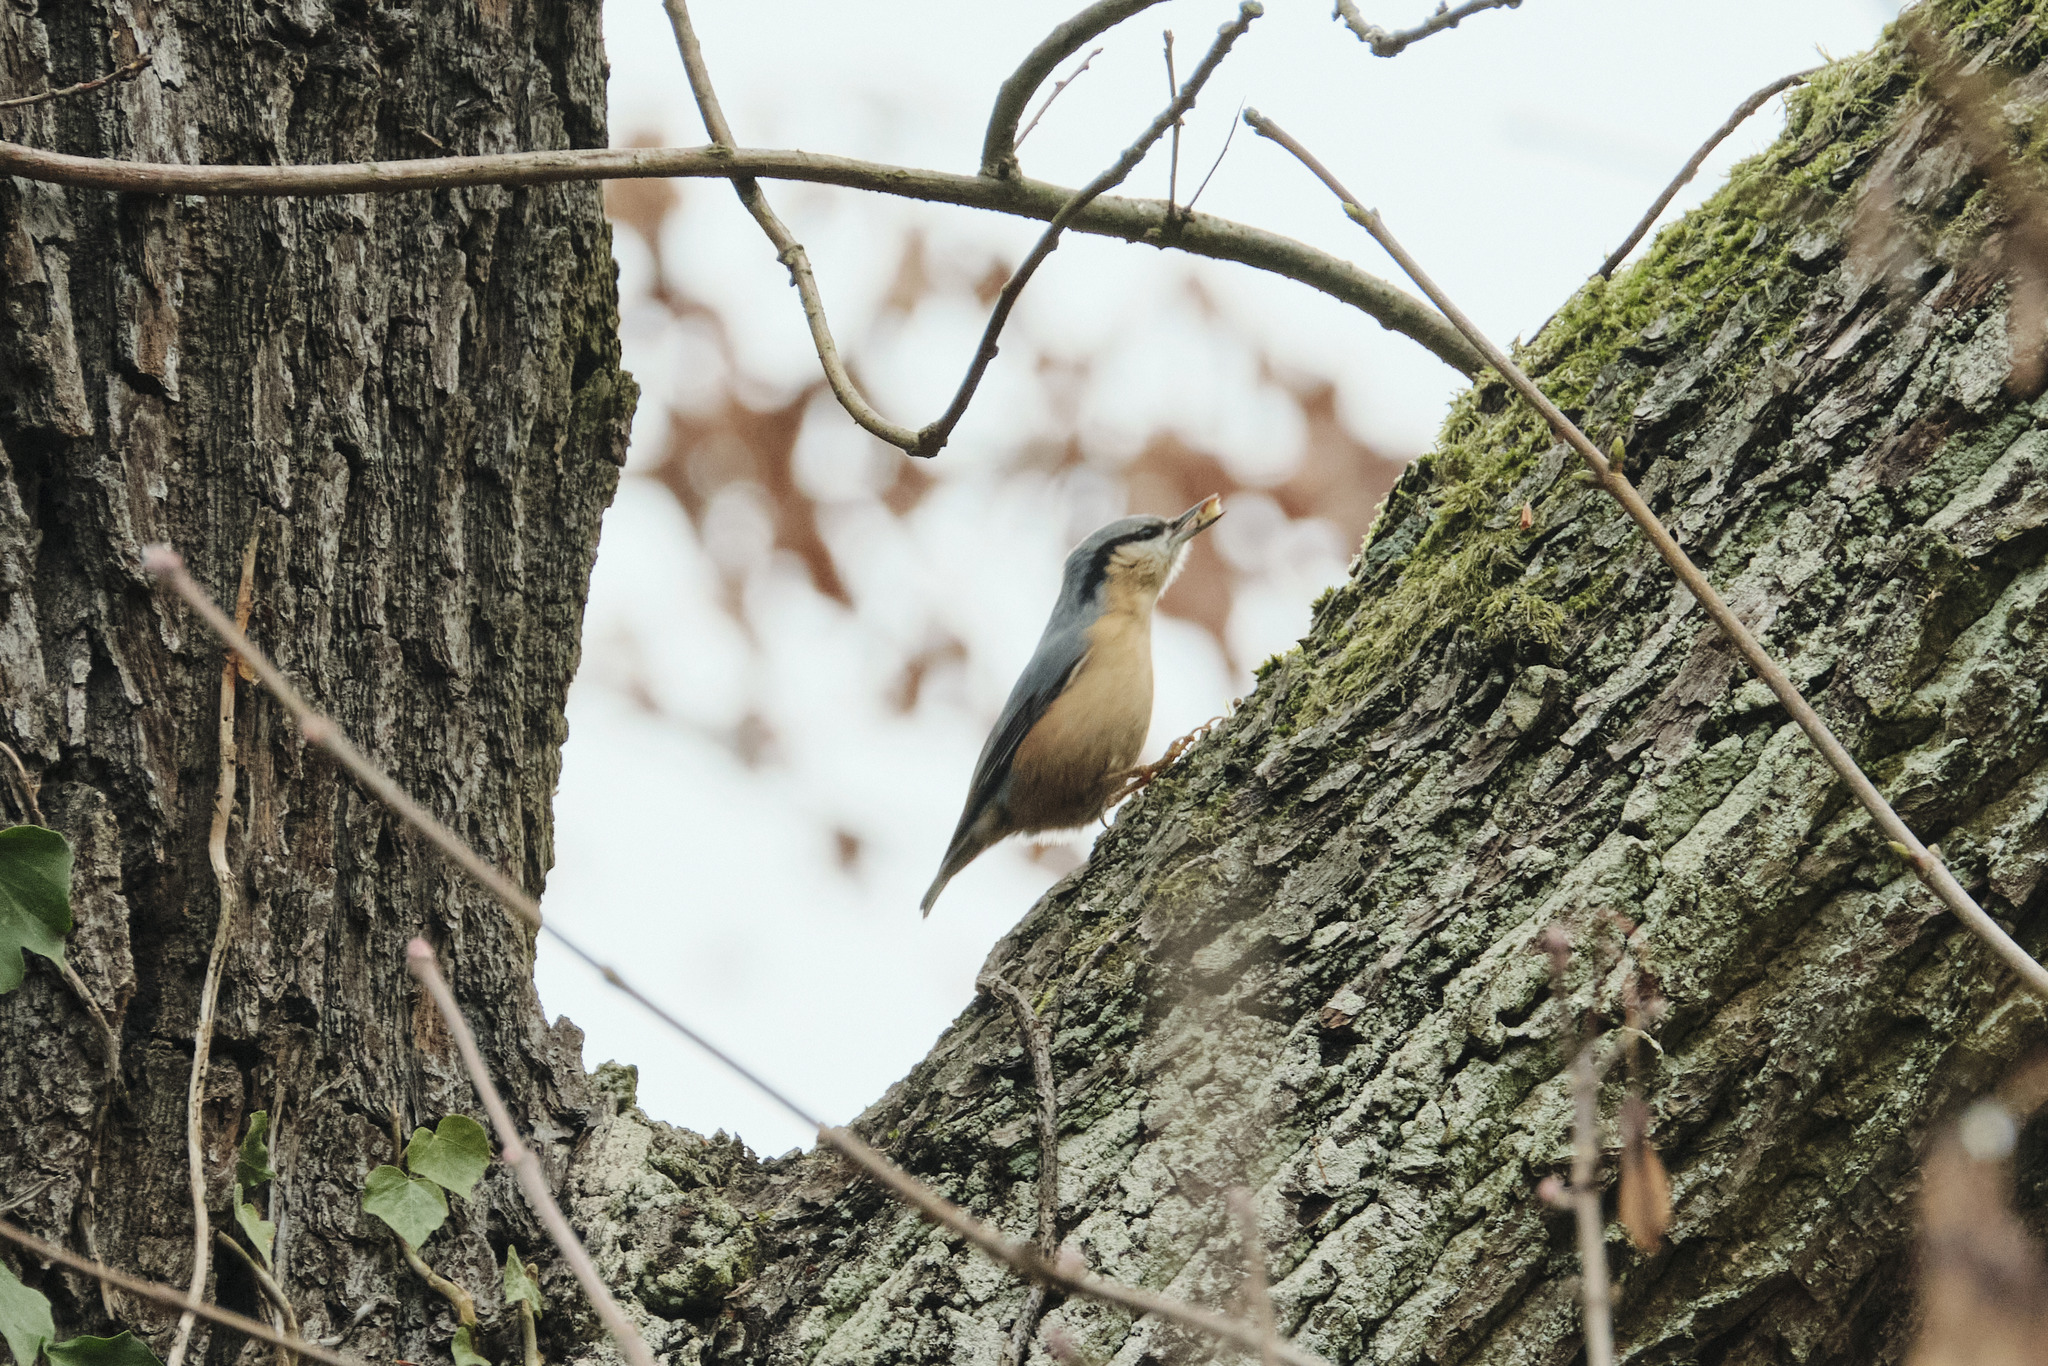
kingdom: Animalia
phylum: Chordata
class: Aves
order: Passeriformes
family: Sittidae
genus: Sitta
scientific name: Sitta europaea
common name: Eurasian nuthatch
